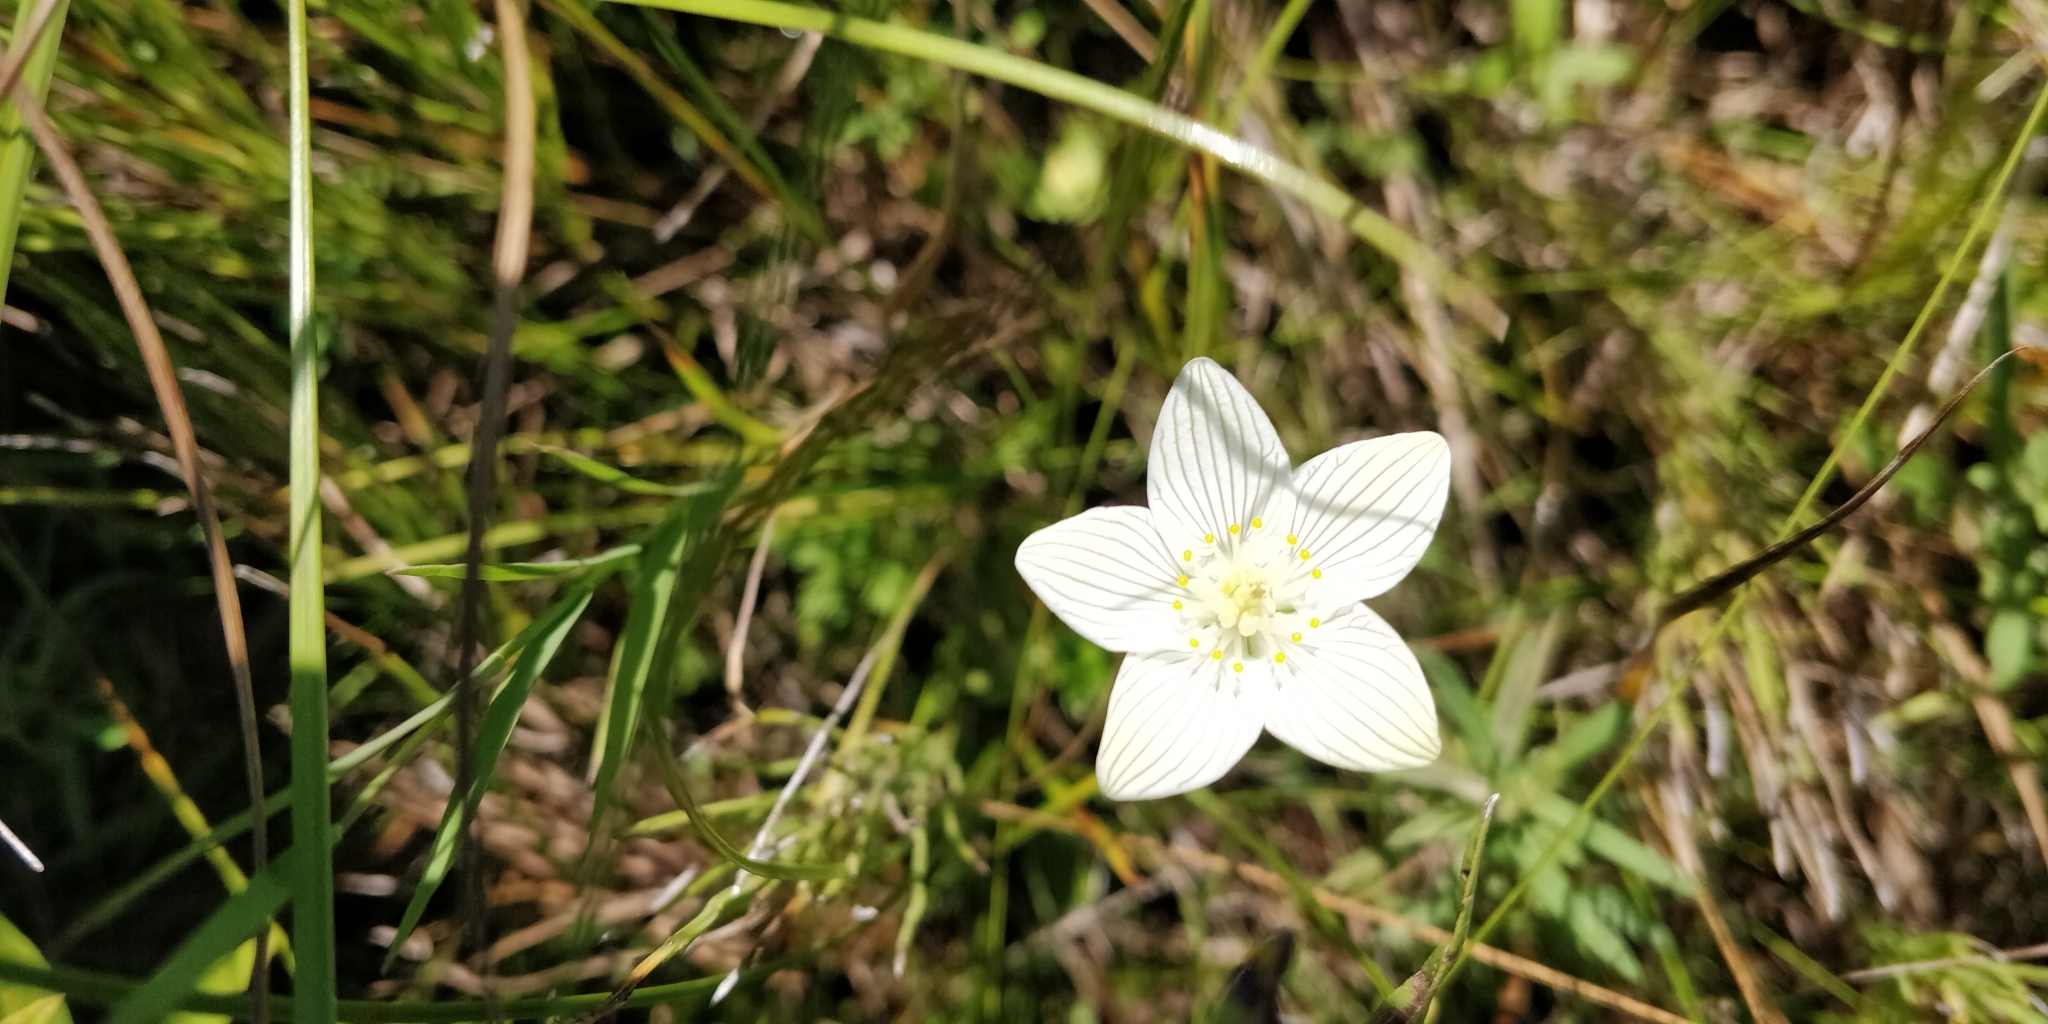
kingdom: Plantae
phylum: Tracheophyta
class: Magnoliopsida
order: Celastrales
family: Parnassiaceae
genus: Parnassia
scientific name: Parnassia glauca
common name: American grass-of-parnassus
